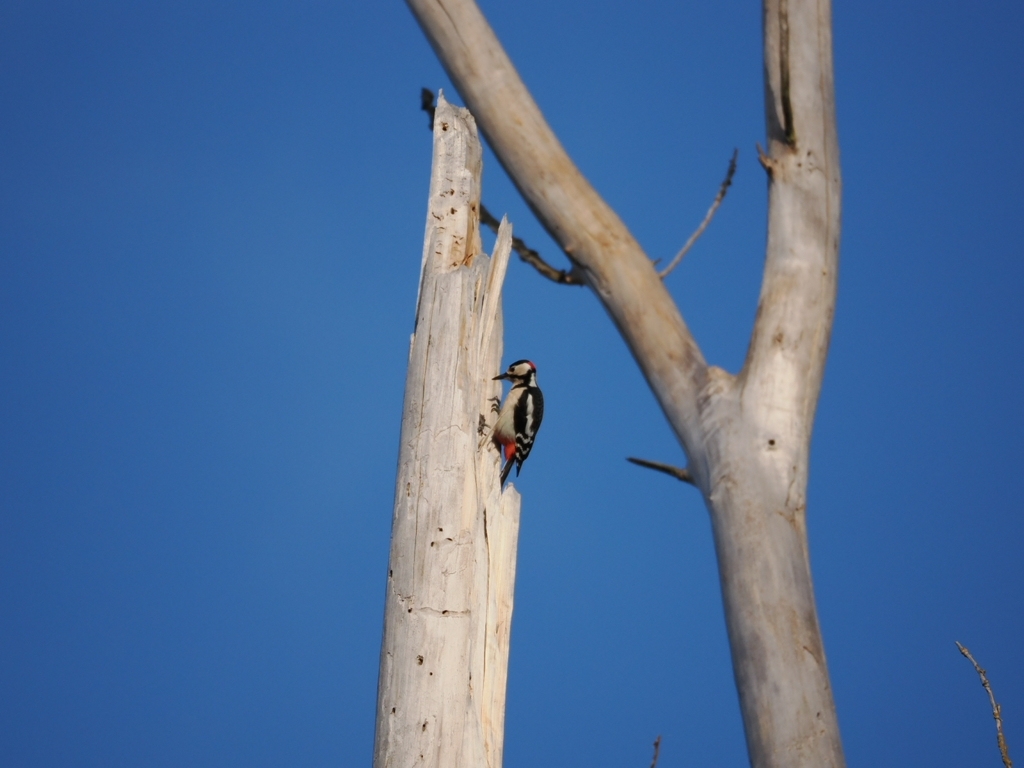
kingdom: Animalia
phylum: Chordata
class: Aves
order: Piciformes
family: Picidae
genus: Dendrocopos
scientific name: Dendrocopos major
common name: Great spotted woodpecker
